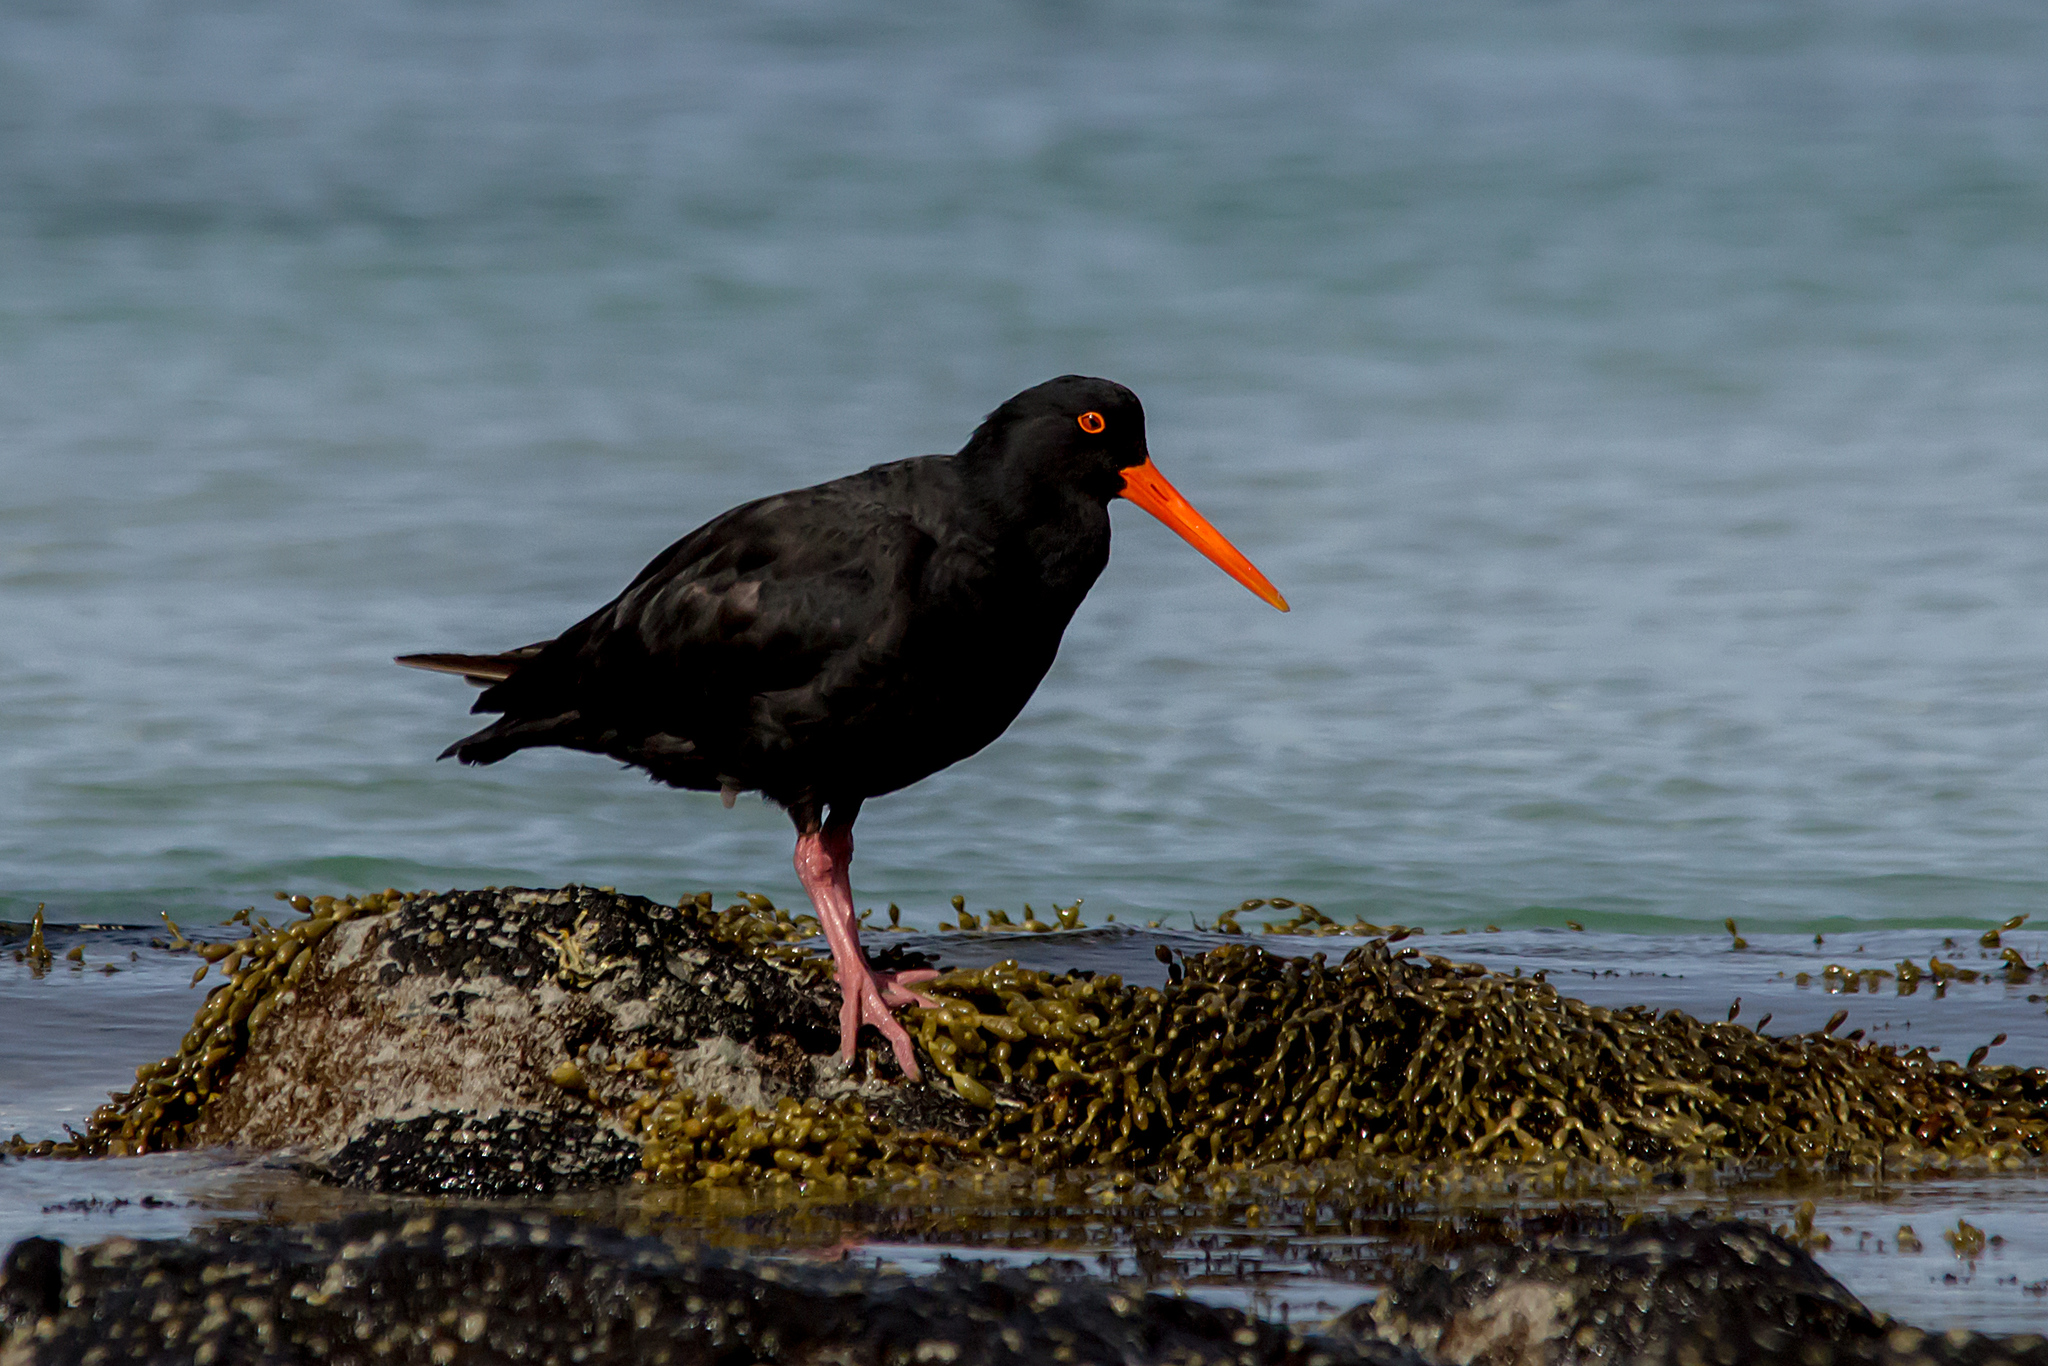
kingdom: Animalia
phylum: Chordata
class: Aves
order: Charadriiformes
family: Haematopodidae
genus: Haematopus
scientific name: Haematopus fuliginosus
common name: Sooty oystercatcher
